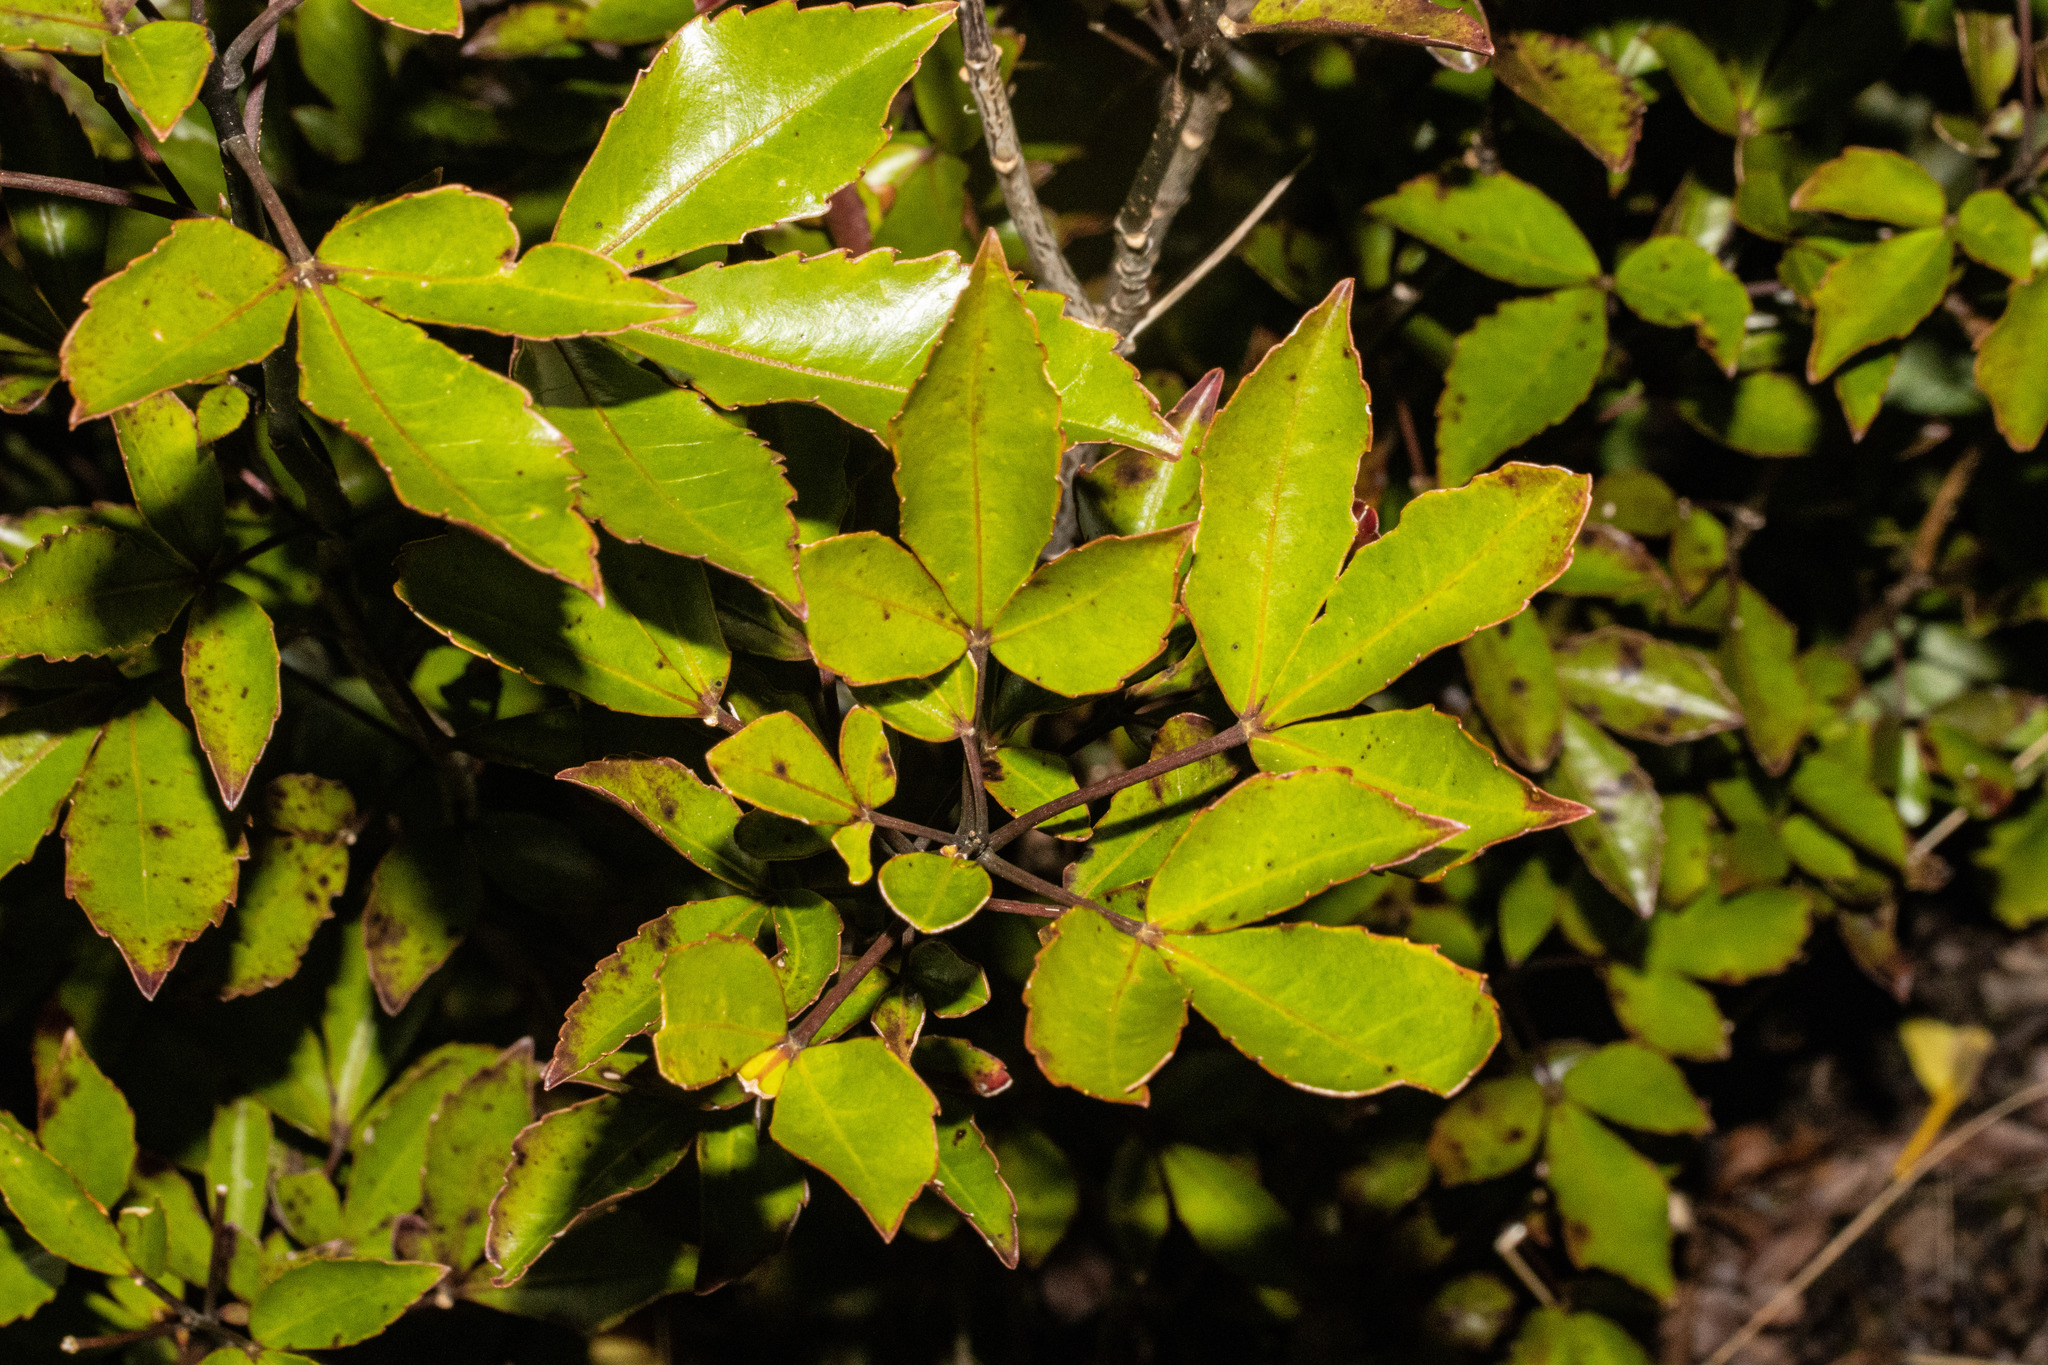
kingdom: Plantae
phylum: Tracheophyta
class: Magnoliopsida
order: Apiales
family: Araliaceae
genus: Raukaua
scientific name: Raukaua simplex
